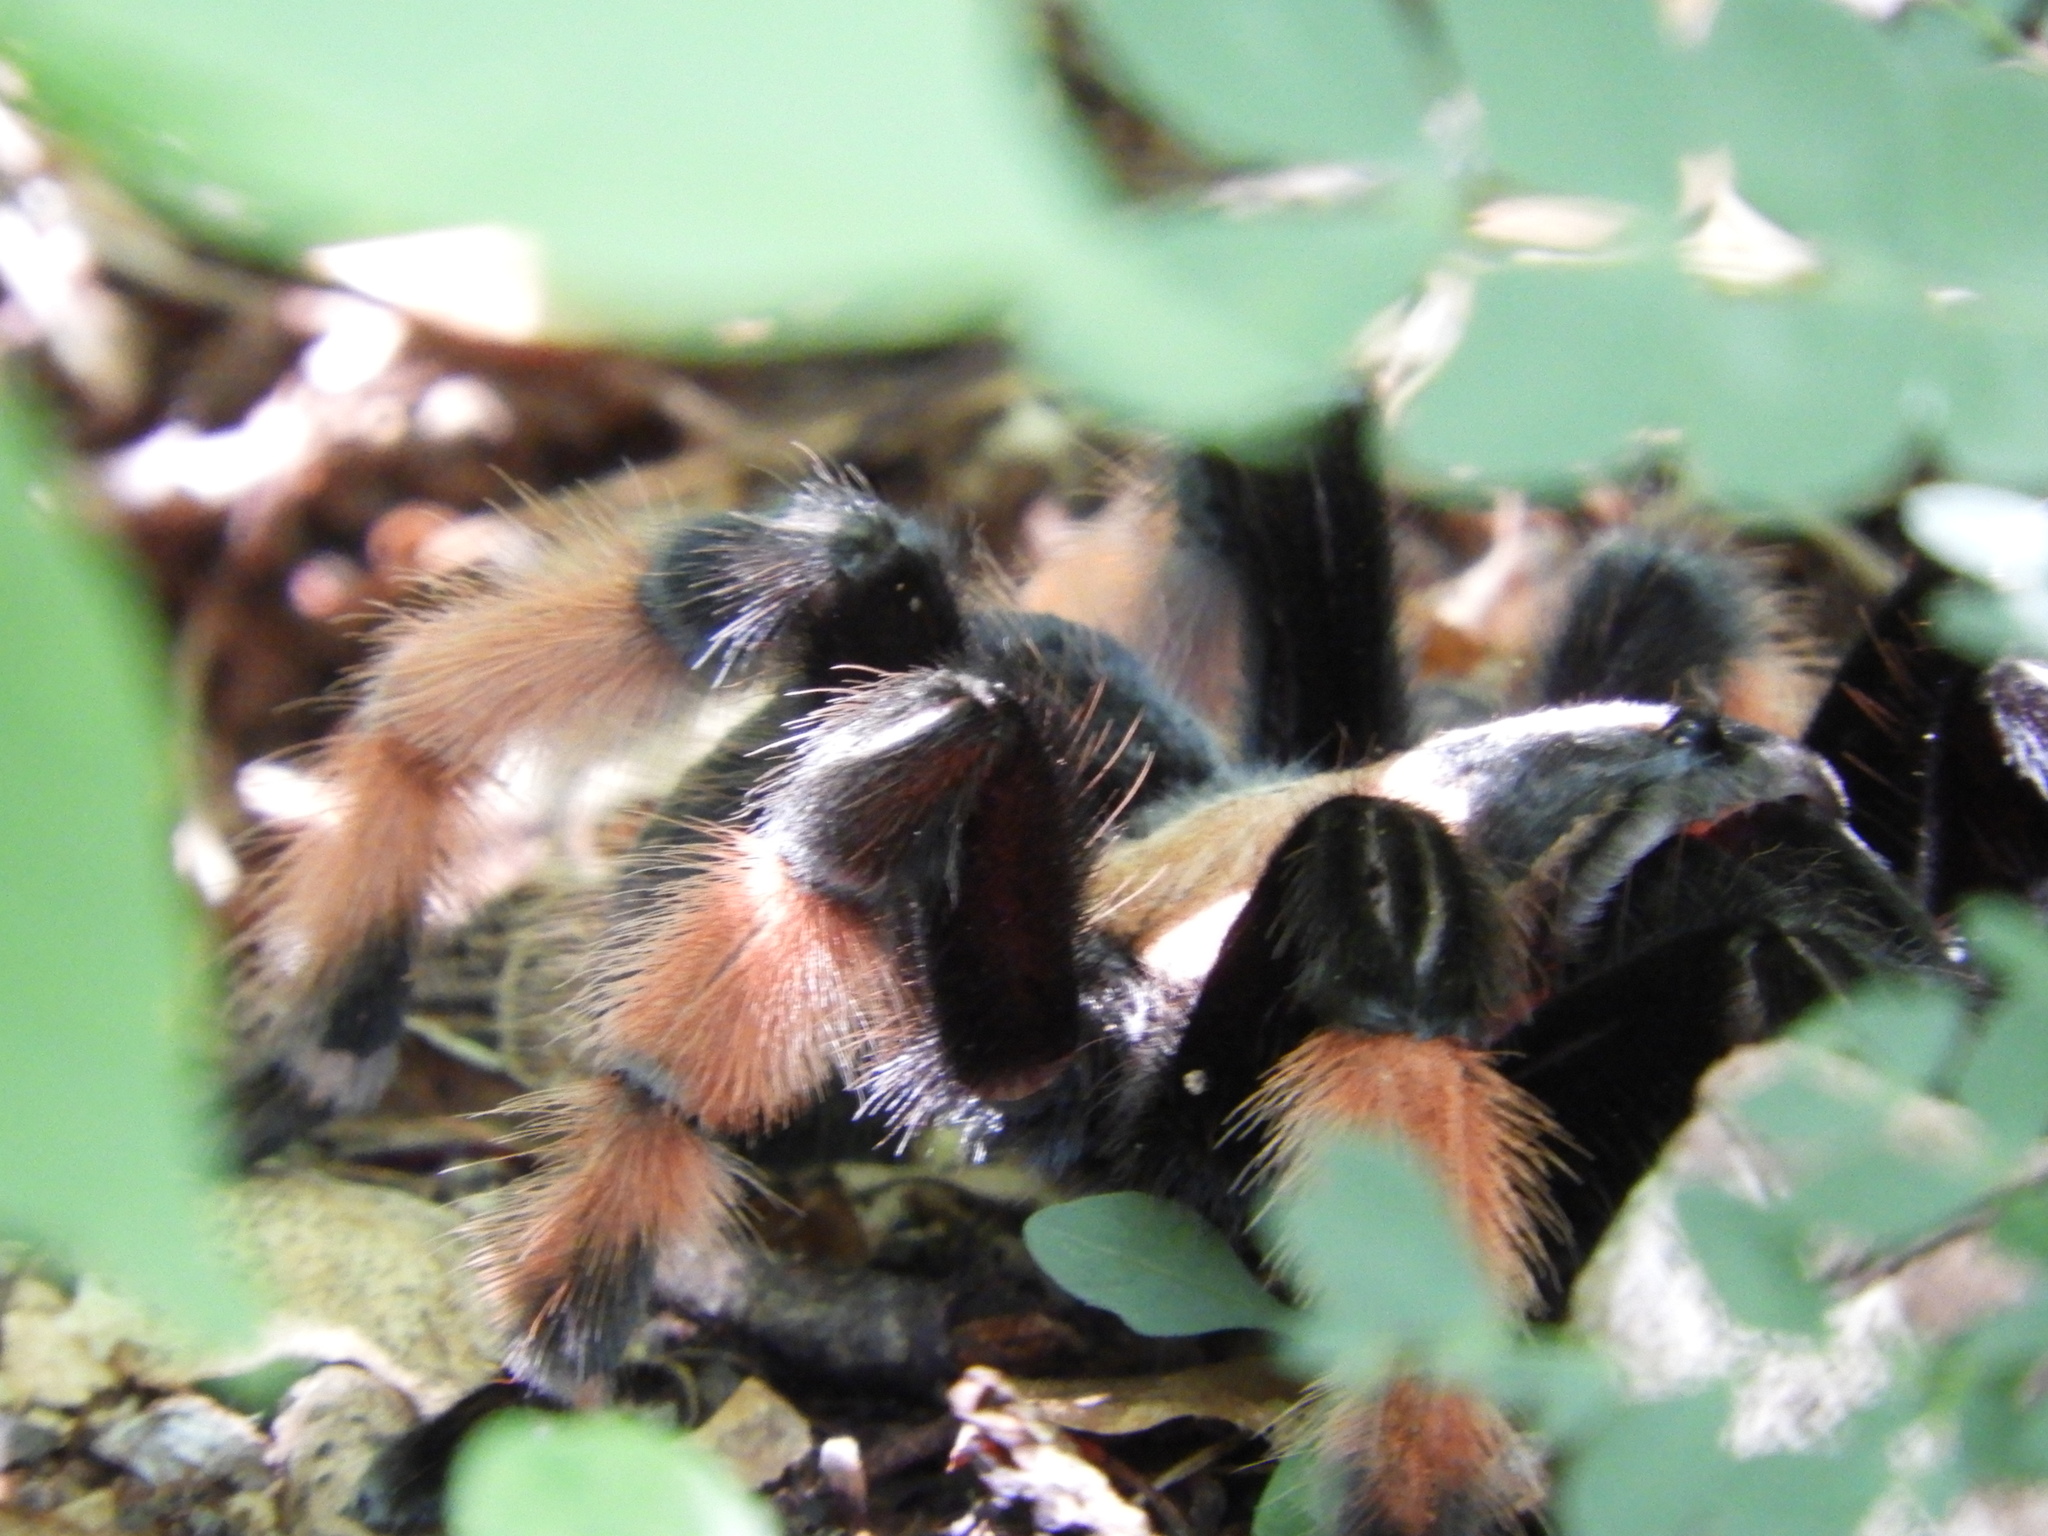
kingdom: Animalia
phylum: Arthropoda
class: Arachnida
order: Araneae
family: Theraphosidae
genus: Brachypelma
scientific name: Brachypelma emilia
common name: Mexican redleg
